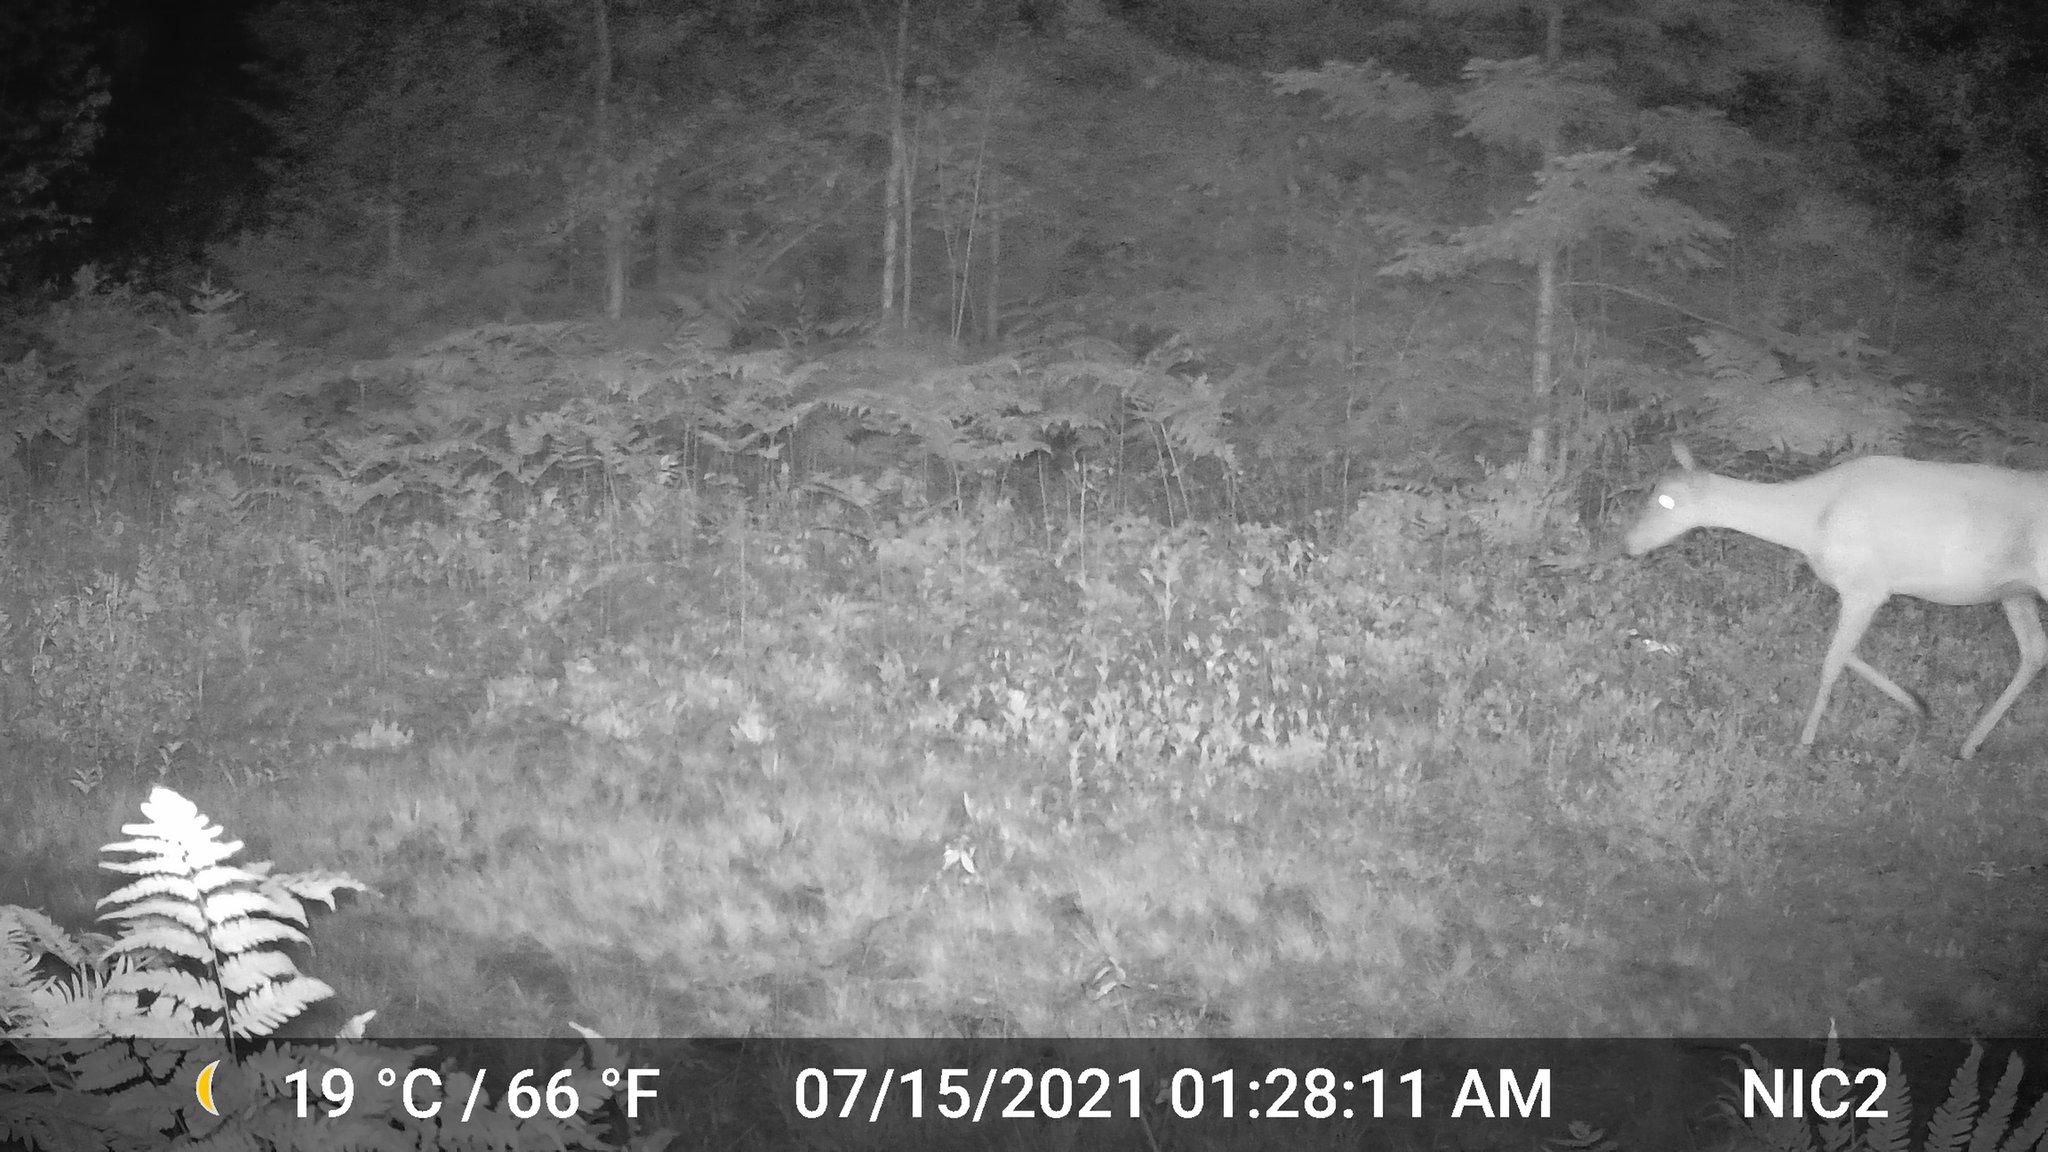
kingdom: Animalia
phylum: Chordata
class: Mammalia
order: Artiodactyla
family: Cervidae
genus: Odocoileus
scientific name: Odocoileus virginianus
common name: White-tailed deer
